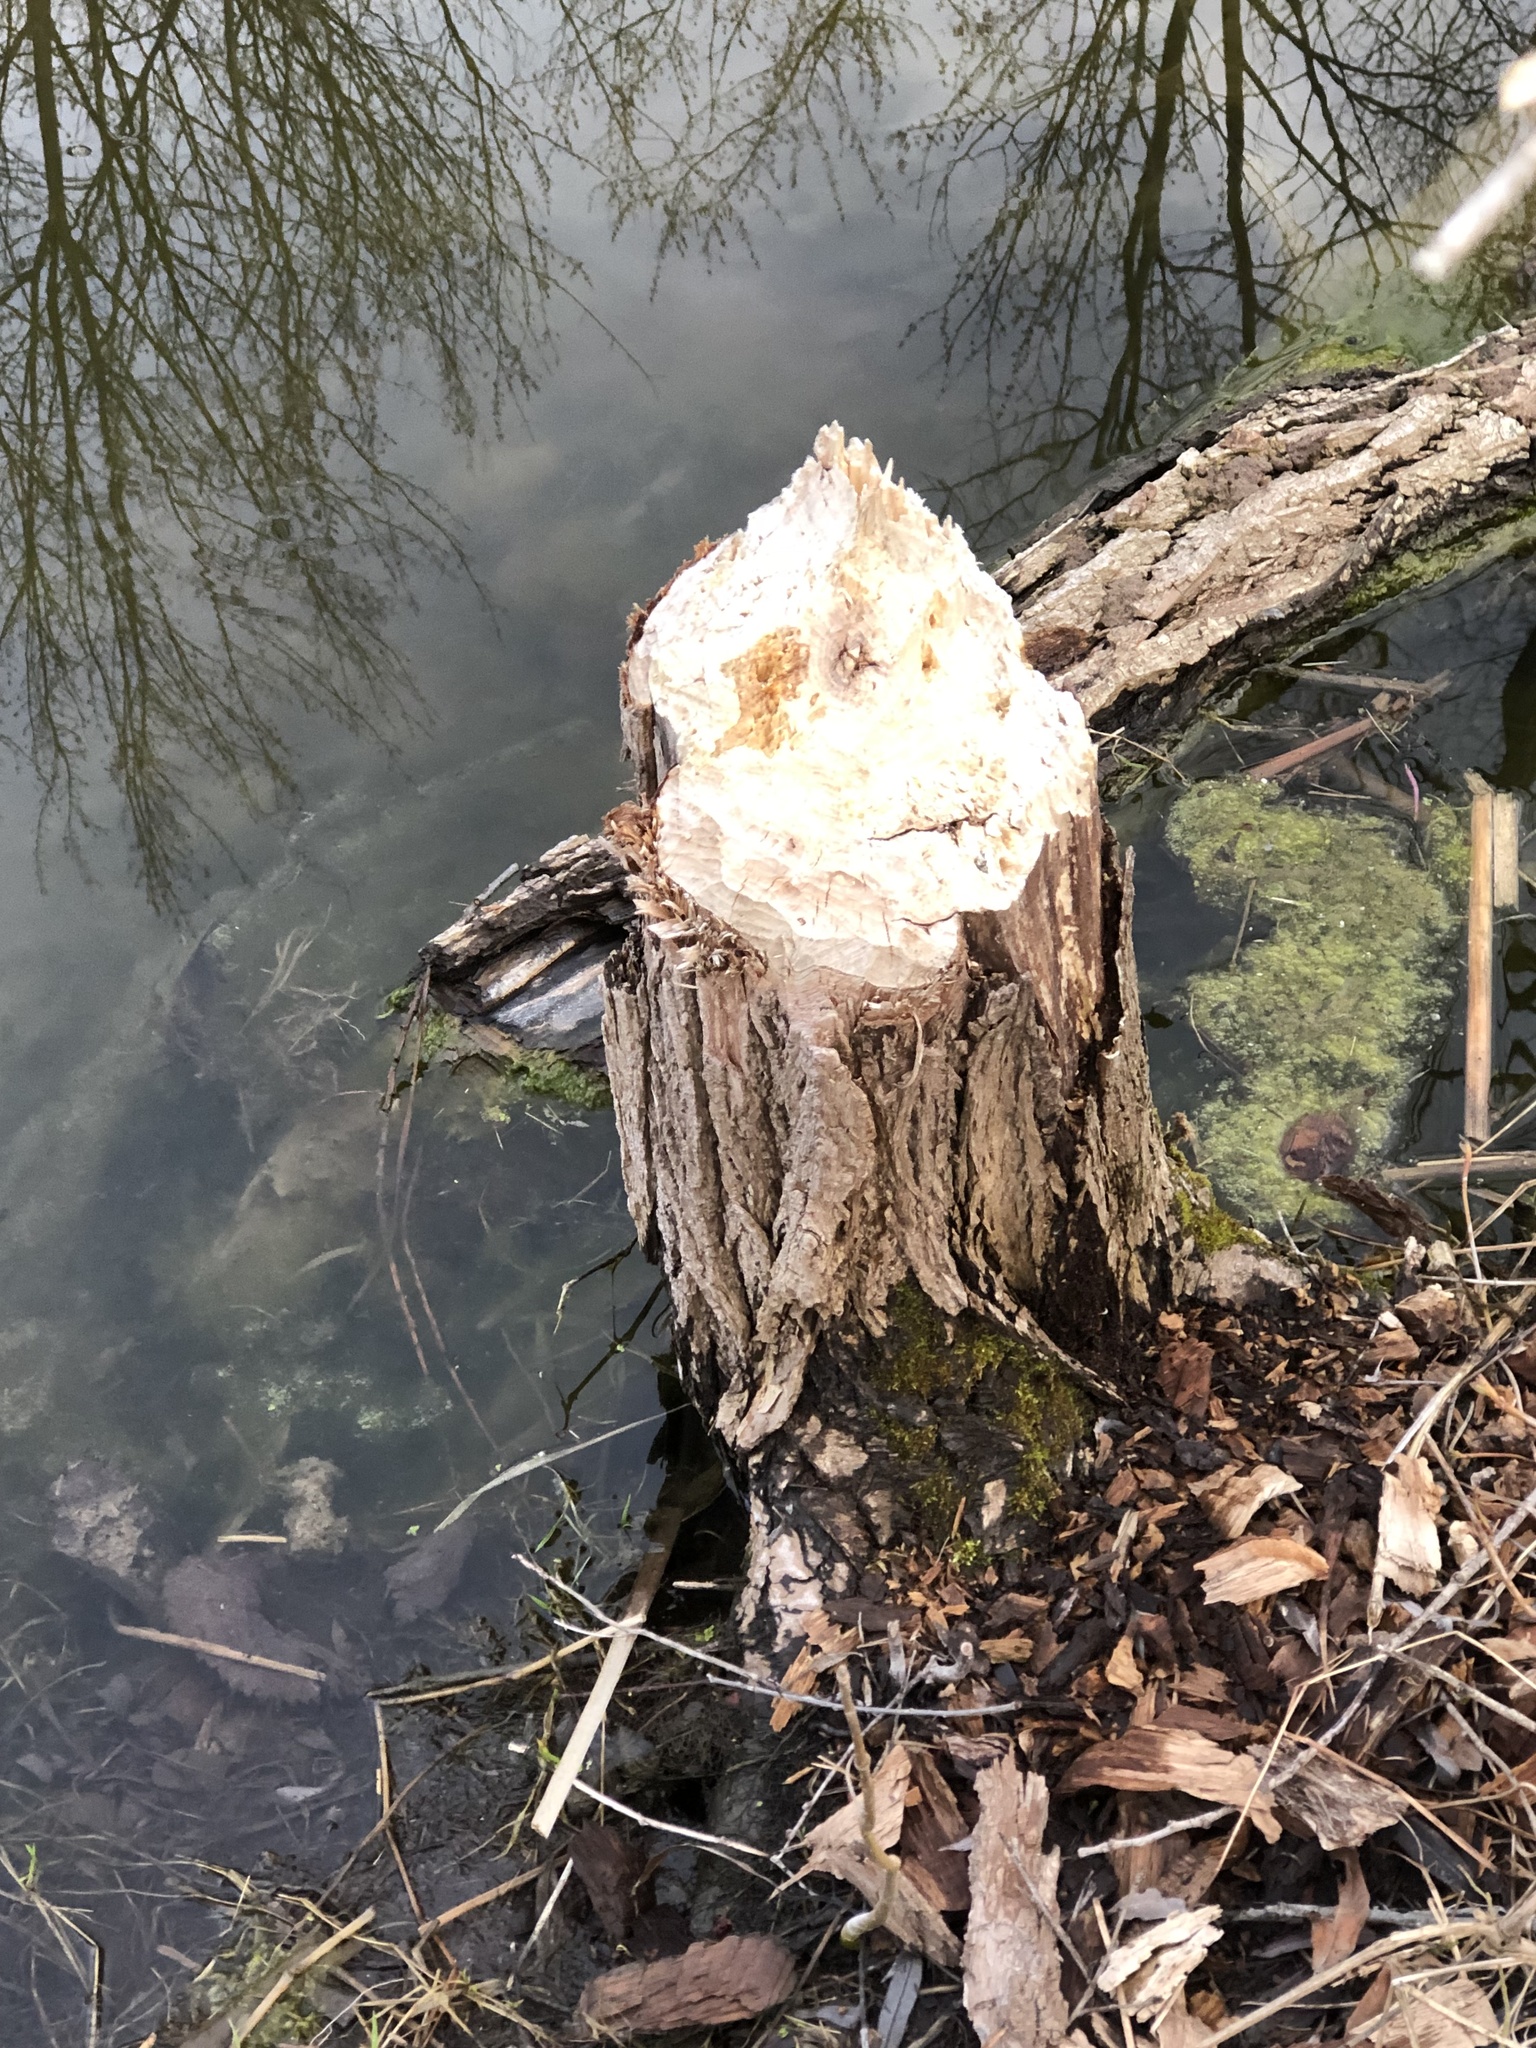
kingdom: Animalia
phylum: Chordata
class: Mammalia
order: Rodentia
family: Castoridae
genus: Castor
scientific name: Castor canadensis
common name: American beaver
